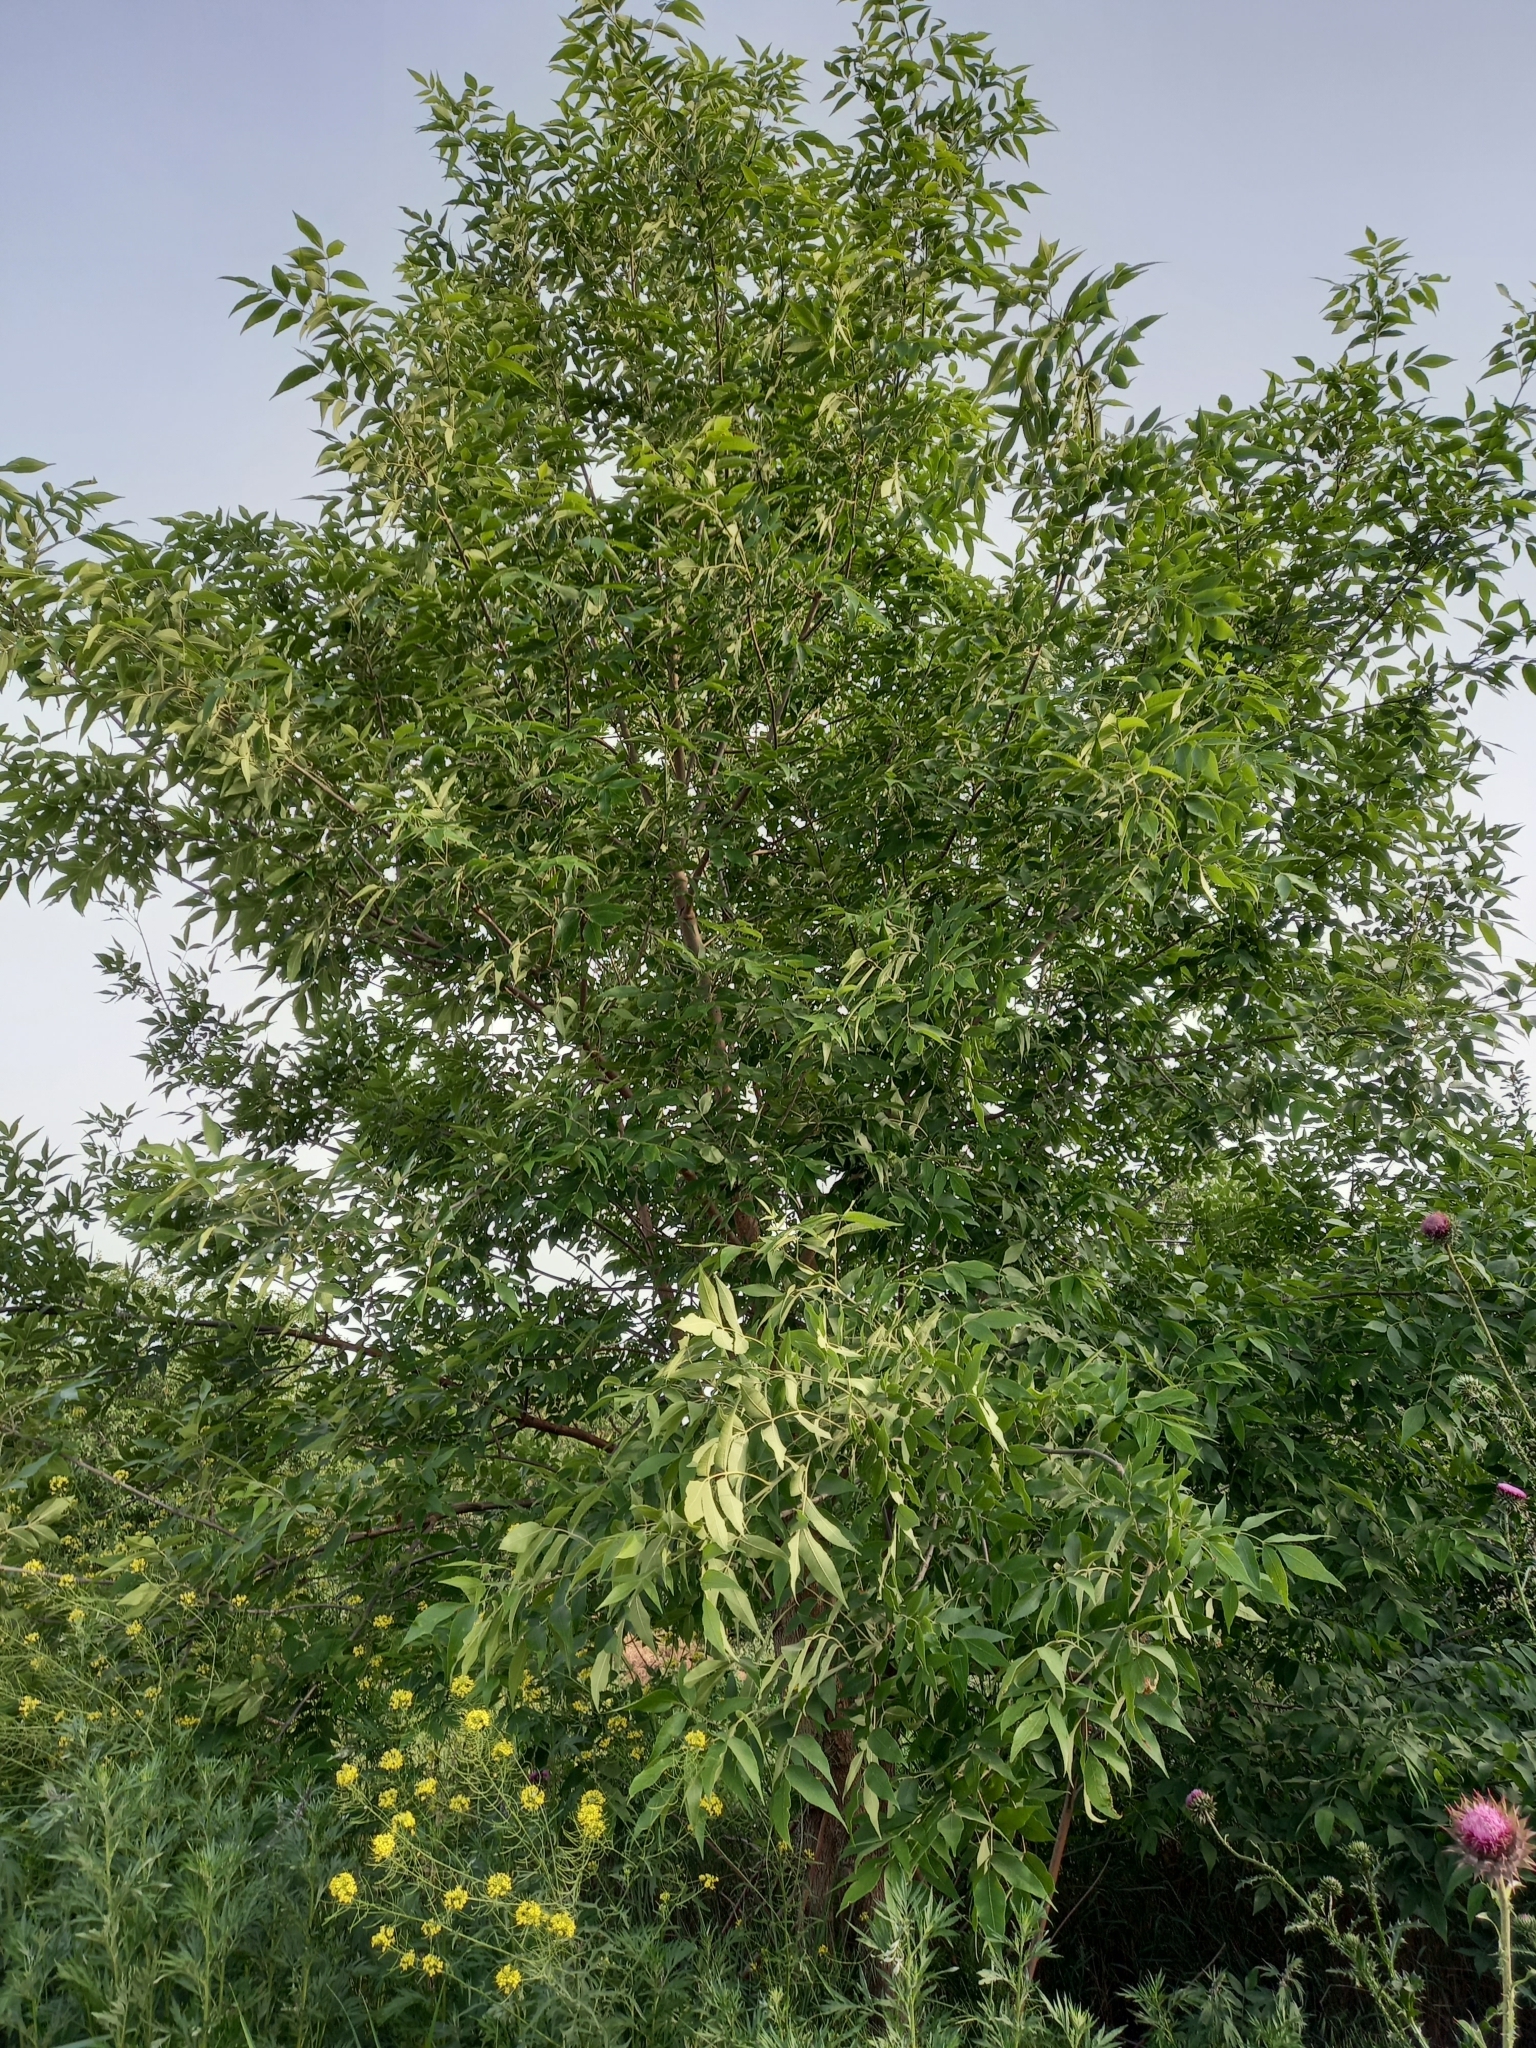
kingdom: Plantae
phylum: Tracheophyta
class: Magnoliopsida
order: Lamiales
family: Oleaceae
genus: Fraxinus
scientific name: Fraxinus pennsylvanica
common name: Green ash
